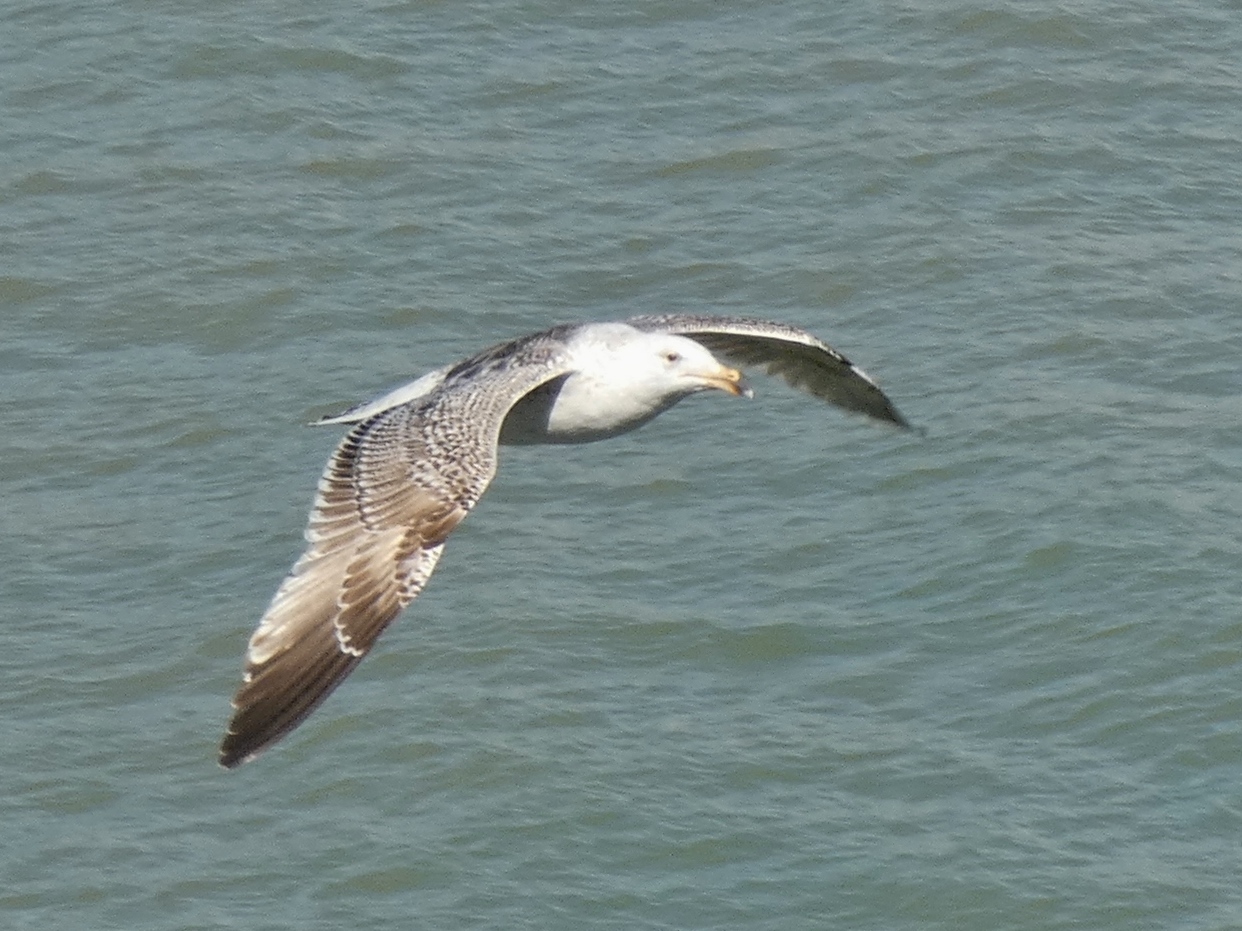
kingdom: Animalia
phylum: Chordata
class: Aves
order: Charadriiformes
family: Laridae
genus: Larus
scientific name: Larus marinus
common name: Great black-backed gull
